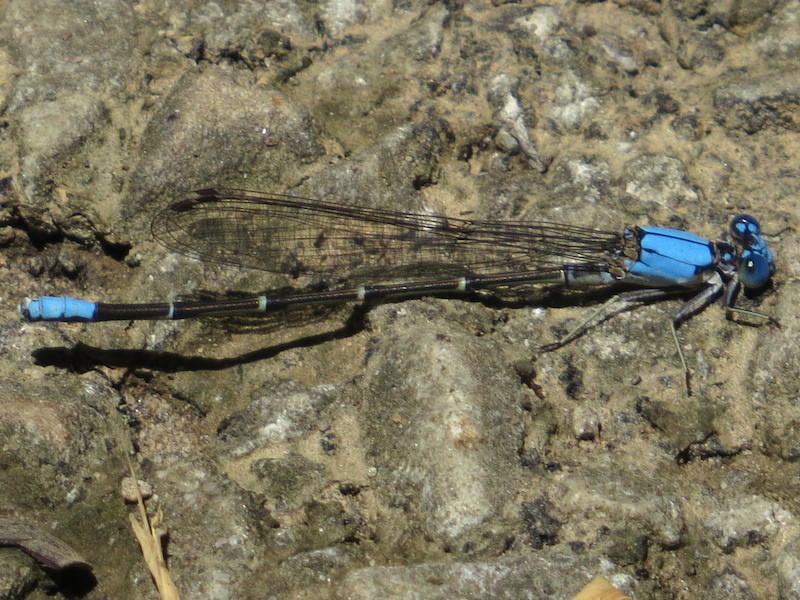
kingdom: Animalia
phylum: Arthropoda
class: Insecta
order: Odonata
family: Coenagrionidae
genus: Argia
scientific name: Argia apicalis
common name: Blue-fronted dancer
